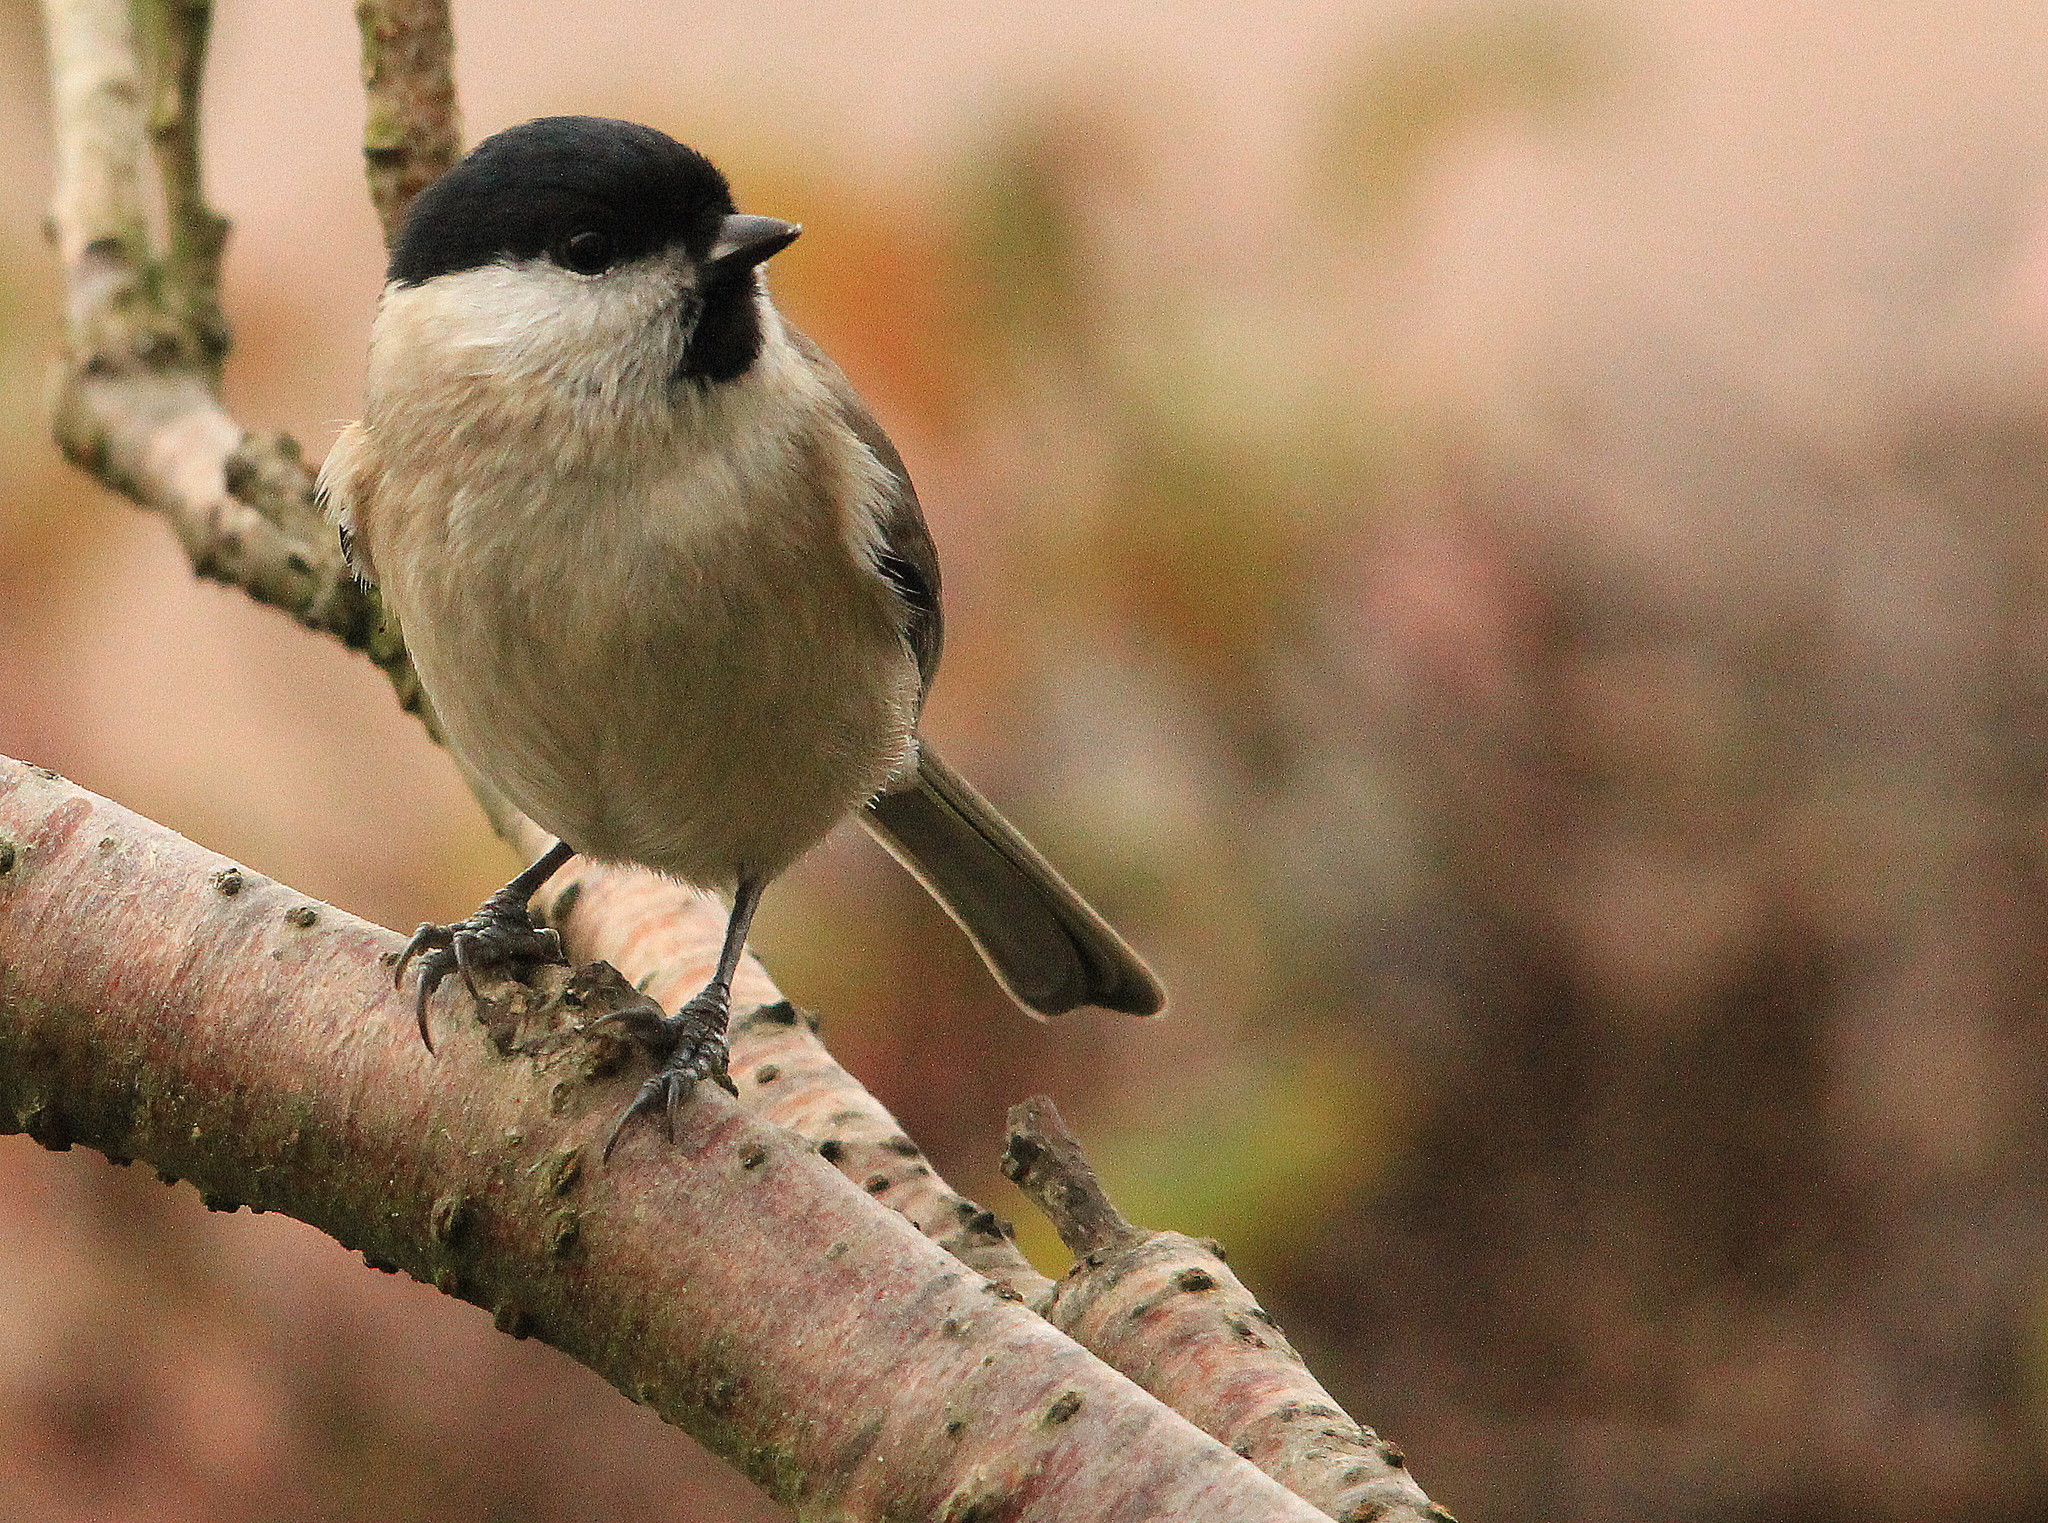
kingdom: Animalia
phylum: Chordata
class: Aves
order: Passeriformes
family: Paridae
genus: Poecile
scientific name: Poecile palustris
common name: Marsh tit
